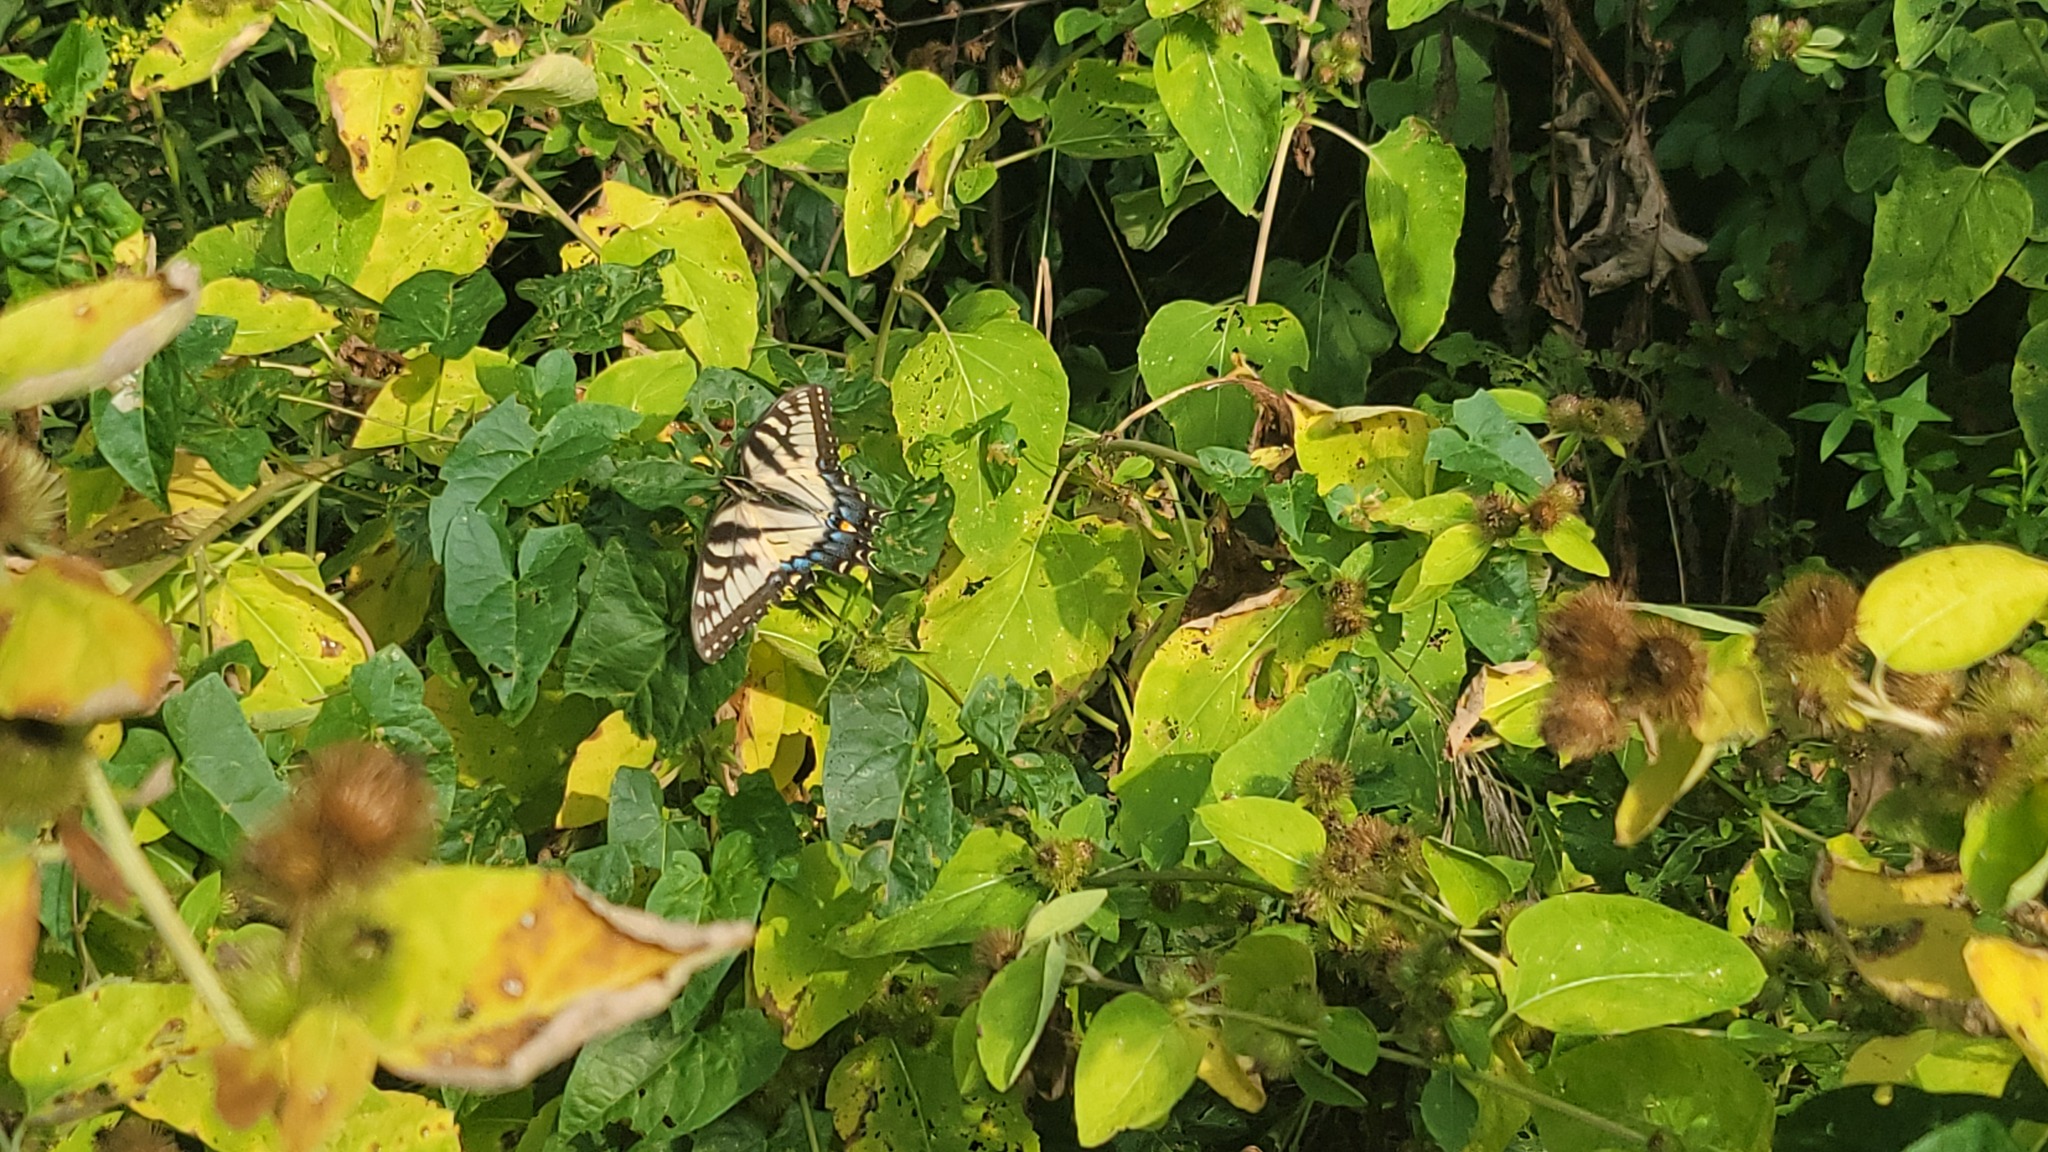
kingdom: Animalia
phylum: Arthropoda
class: Insecta
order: Lepidoptera
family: Papilionidae
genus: Papilio
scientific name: Papilio glaucus
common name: Tiger swallowtail
